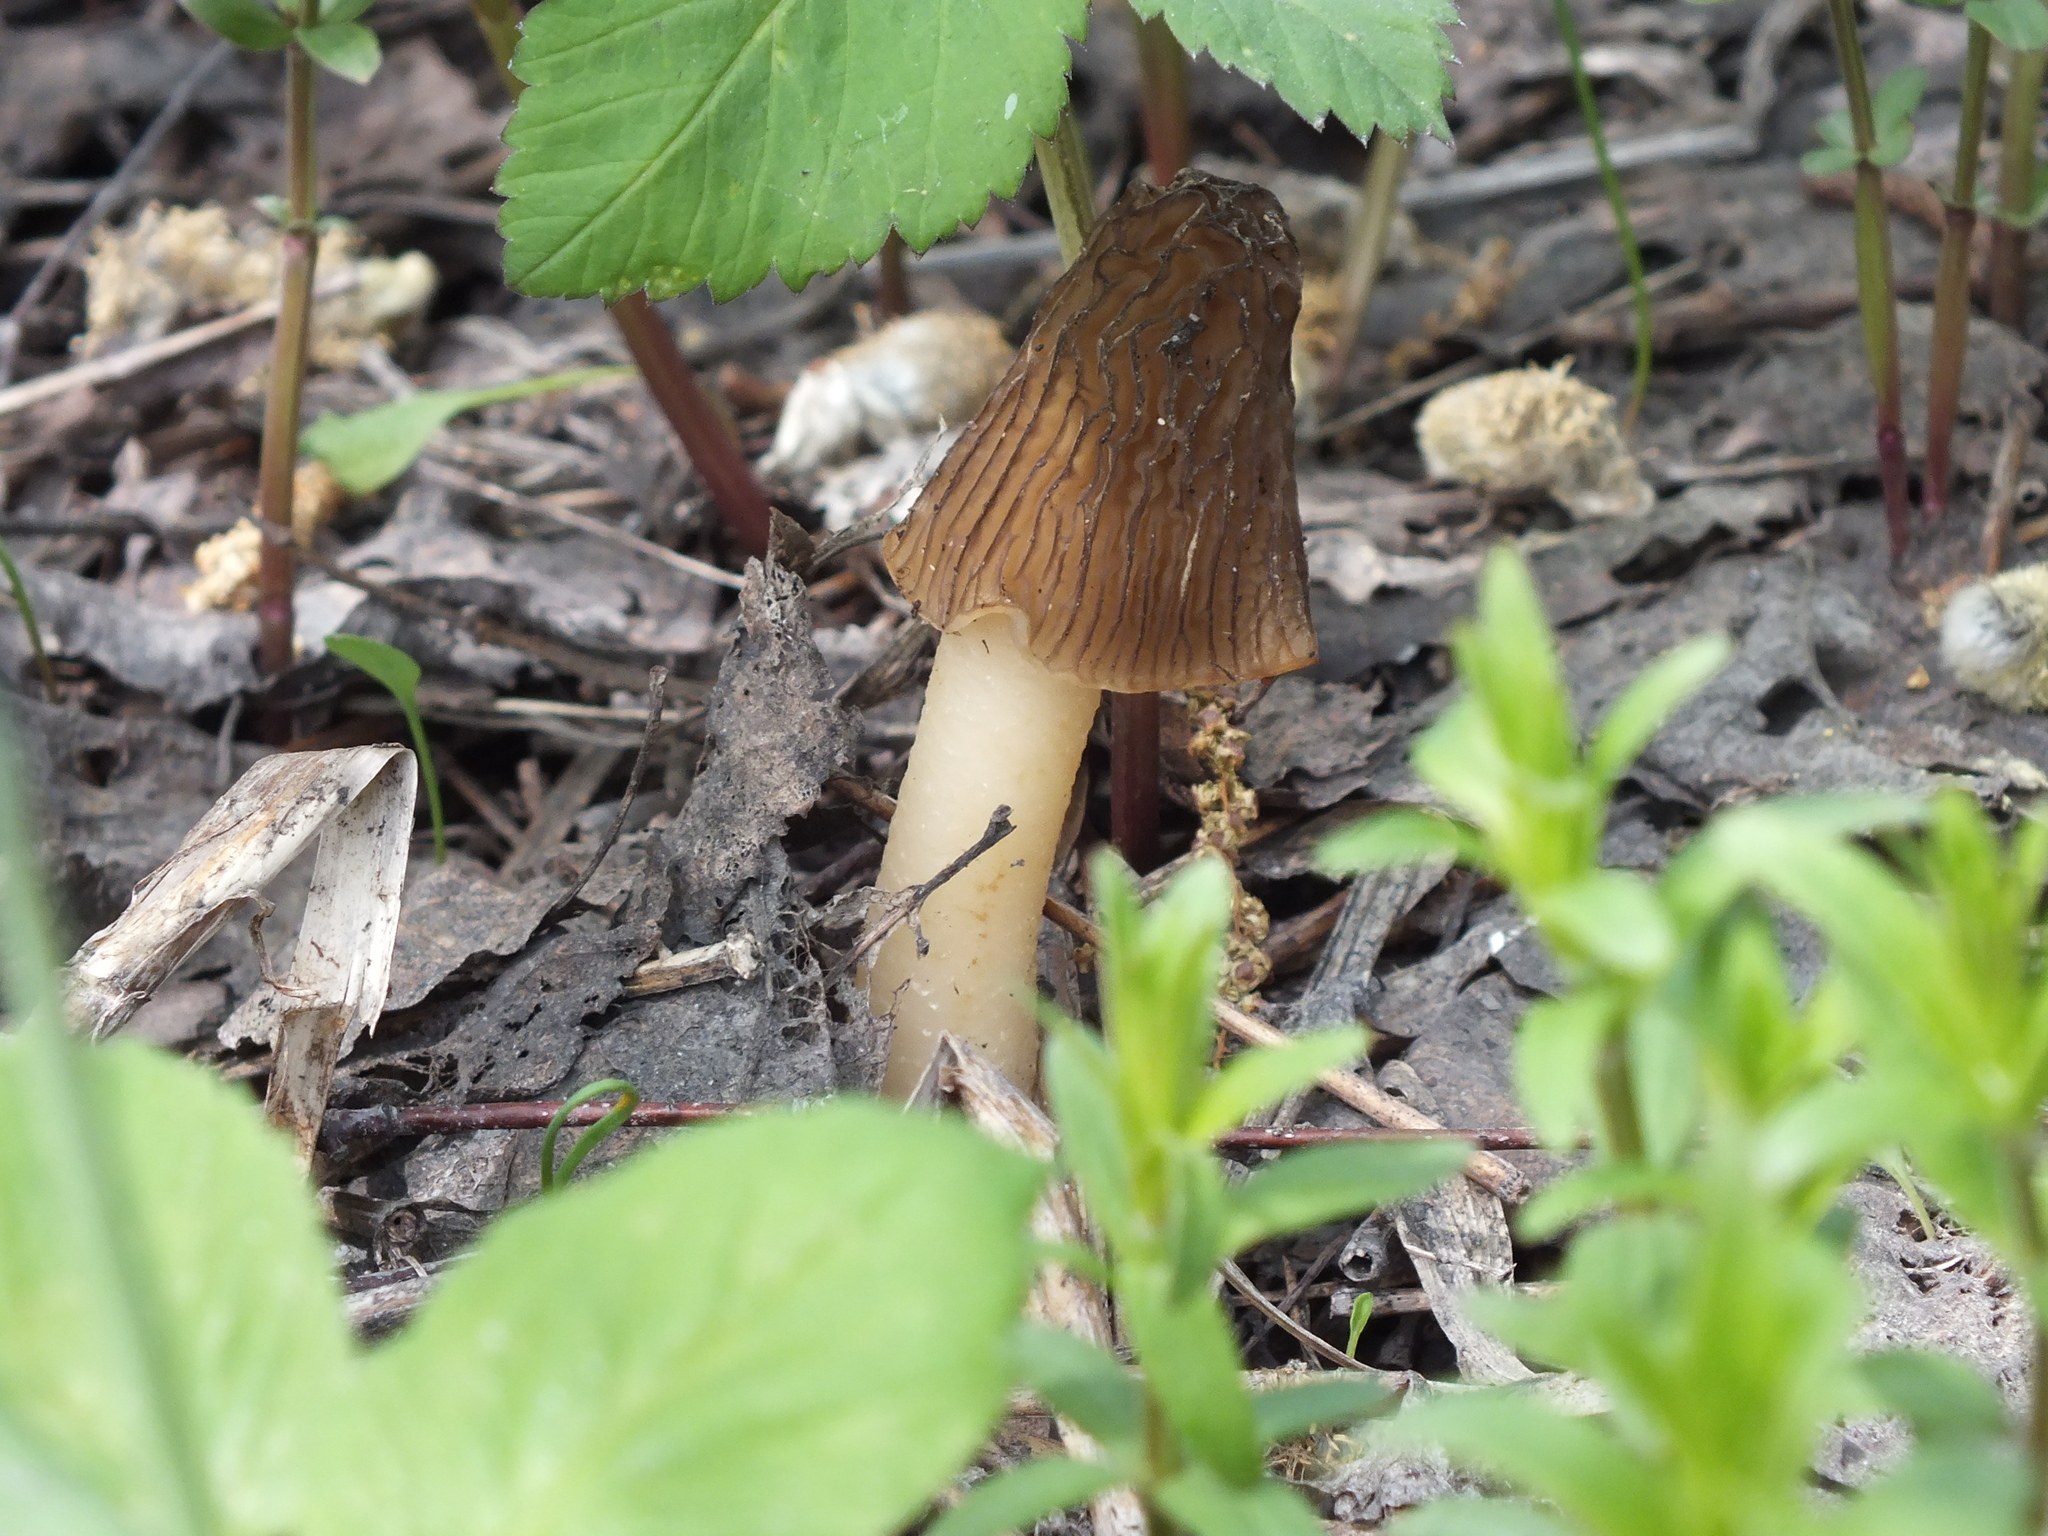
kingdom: Fungi
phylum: Ascomycota
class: Pezizomycetes
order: Pezizales
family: Morchellaceae
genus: Verpa
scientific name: Verpa bohemica
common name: Wrinkled thimble morel
